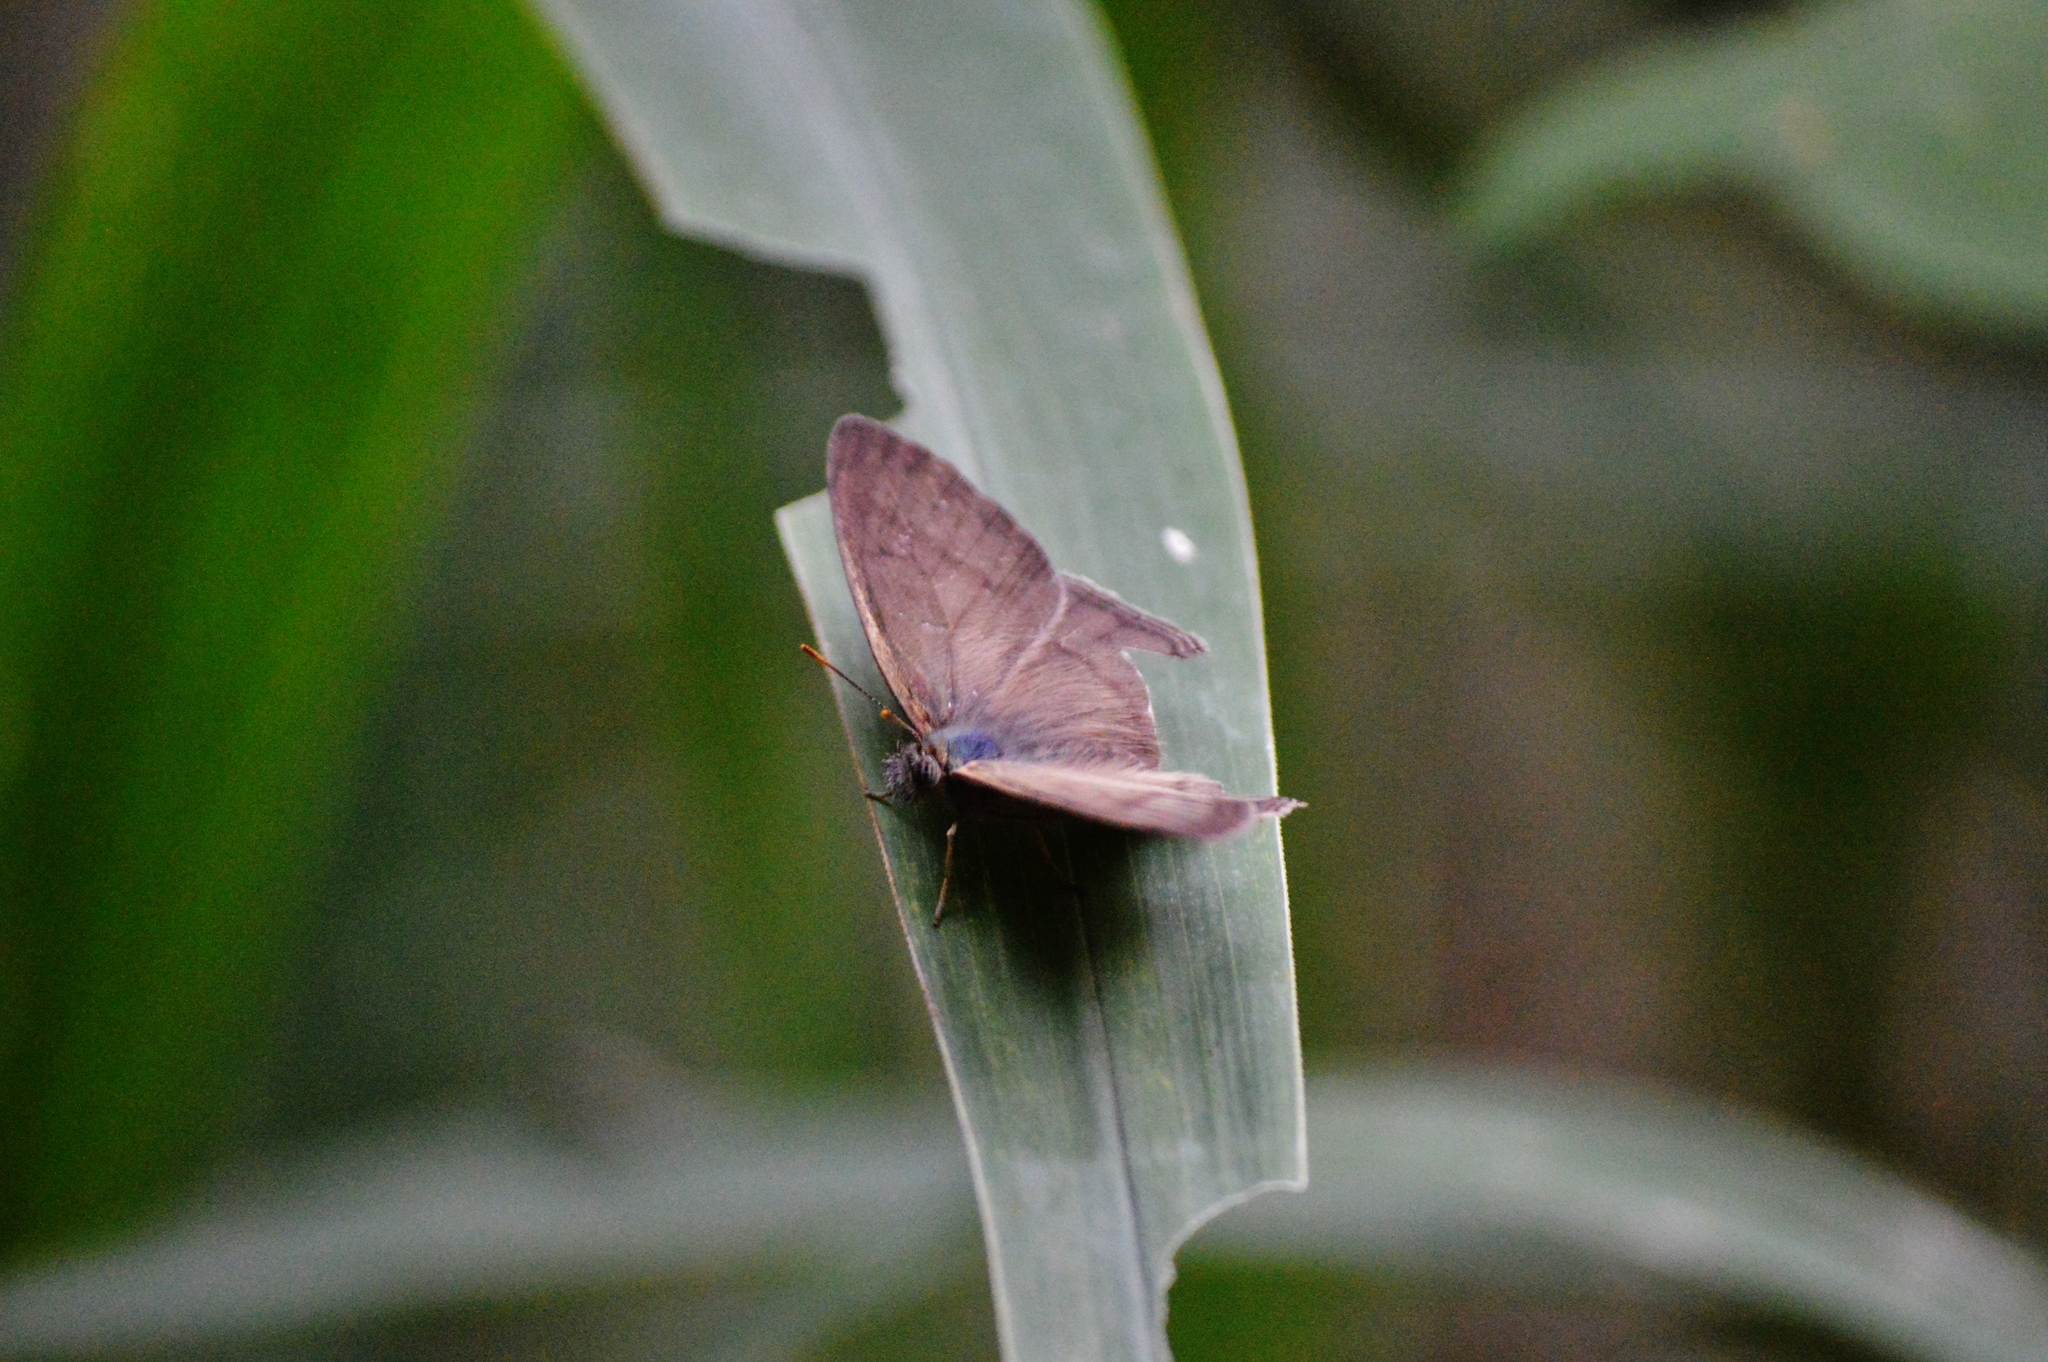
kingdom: Animalia
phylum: Arthropoda
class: Insecta
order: Lepidoptera
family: Nymphalidae
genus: Paryphthimoides
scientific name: Paryphthimoides poltys
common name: Poltys satyr
